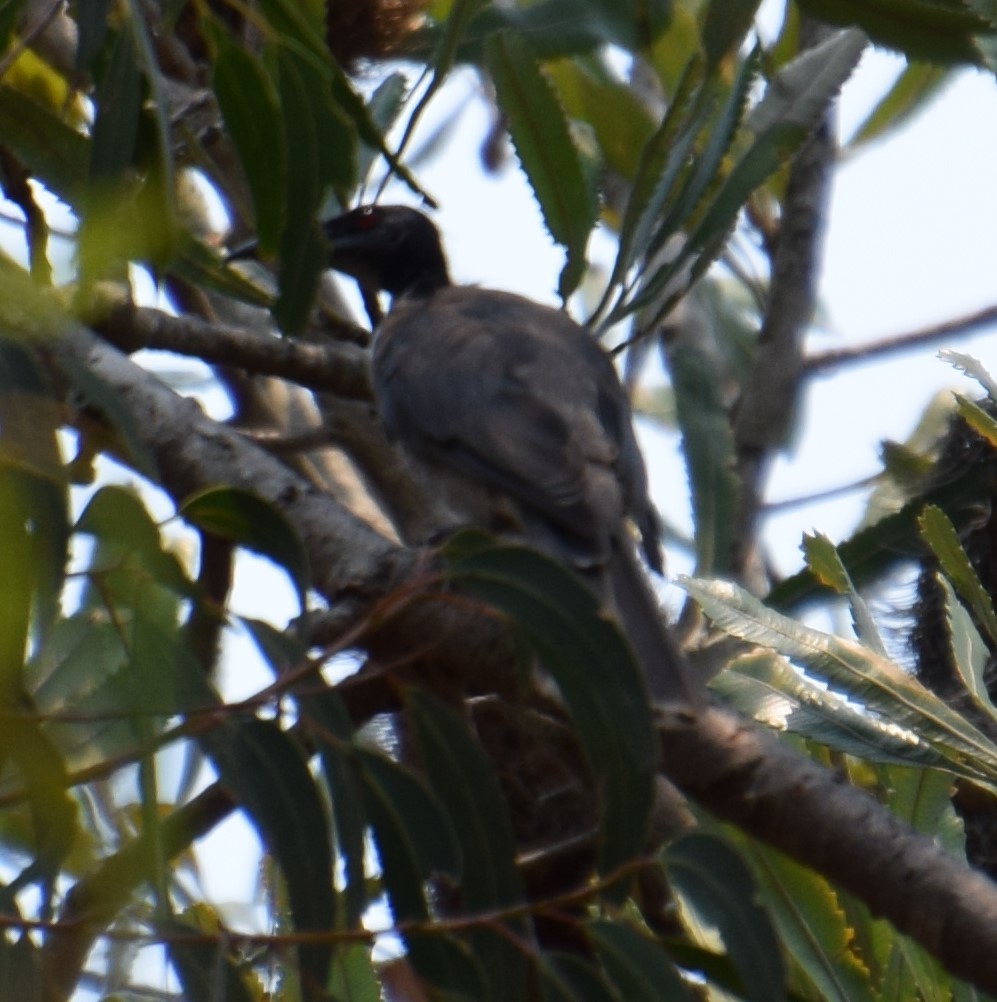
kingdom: Animalia
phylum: Chordata
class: Aves
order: Passeriformes
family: Meliphagidae
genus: Philemon
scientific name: Philemon corniculatus
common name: Noisy friarbird
